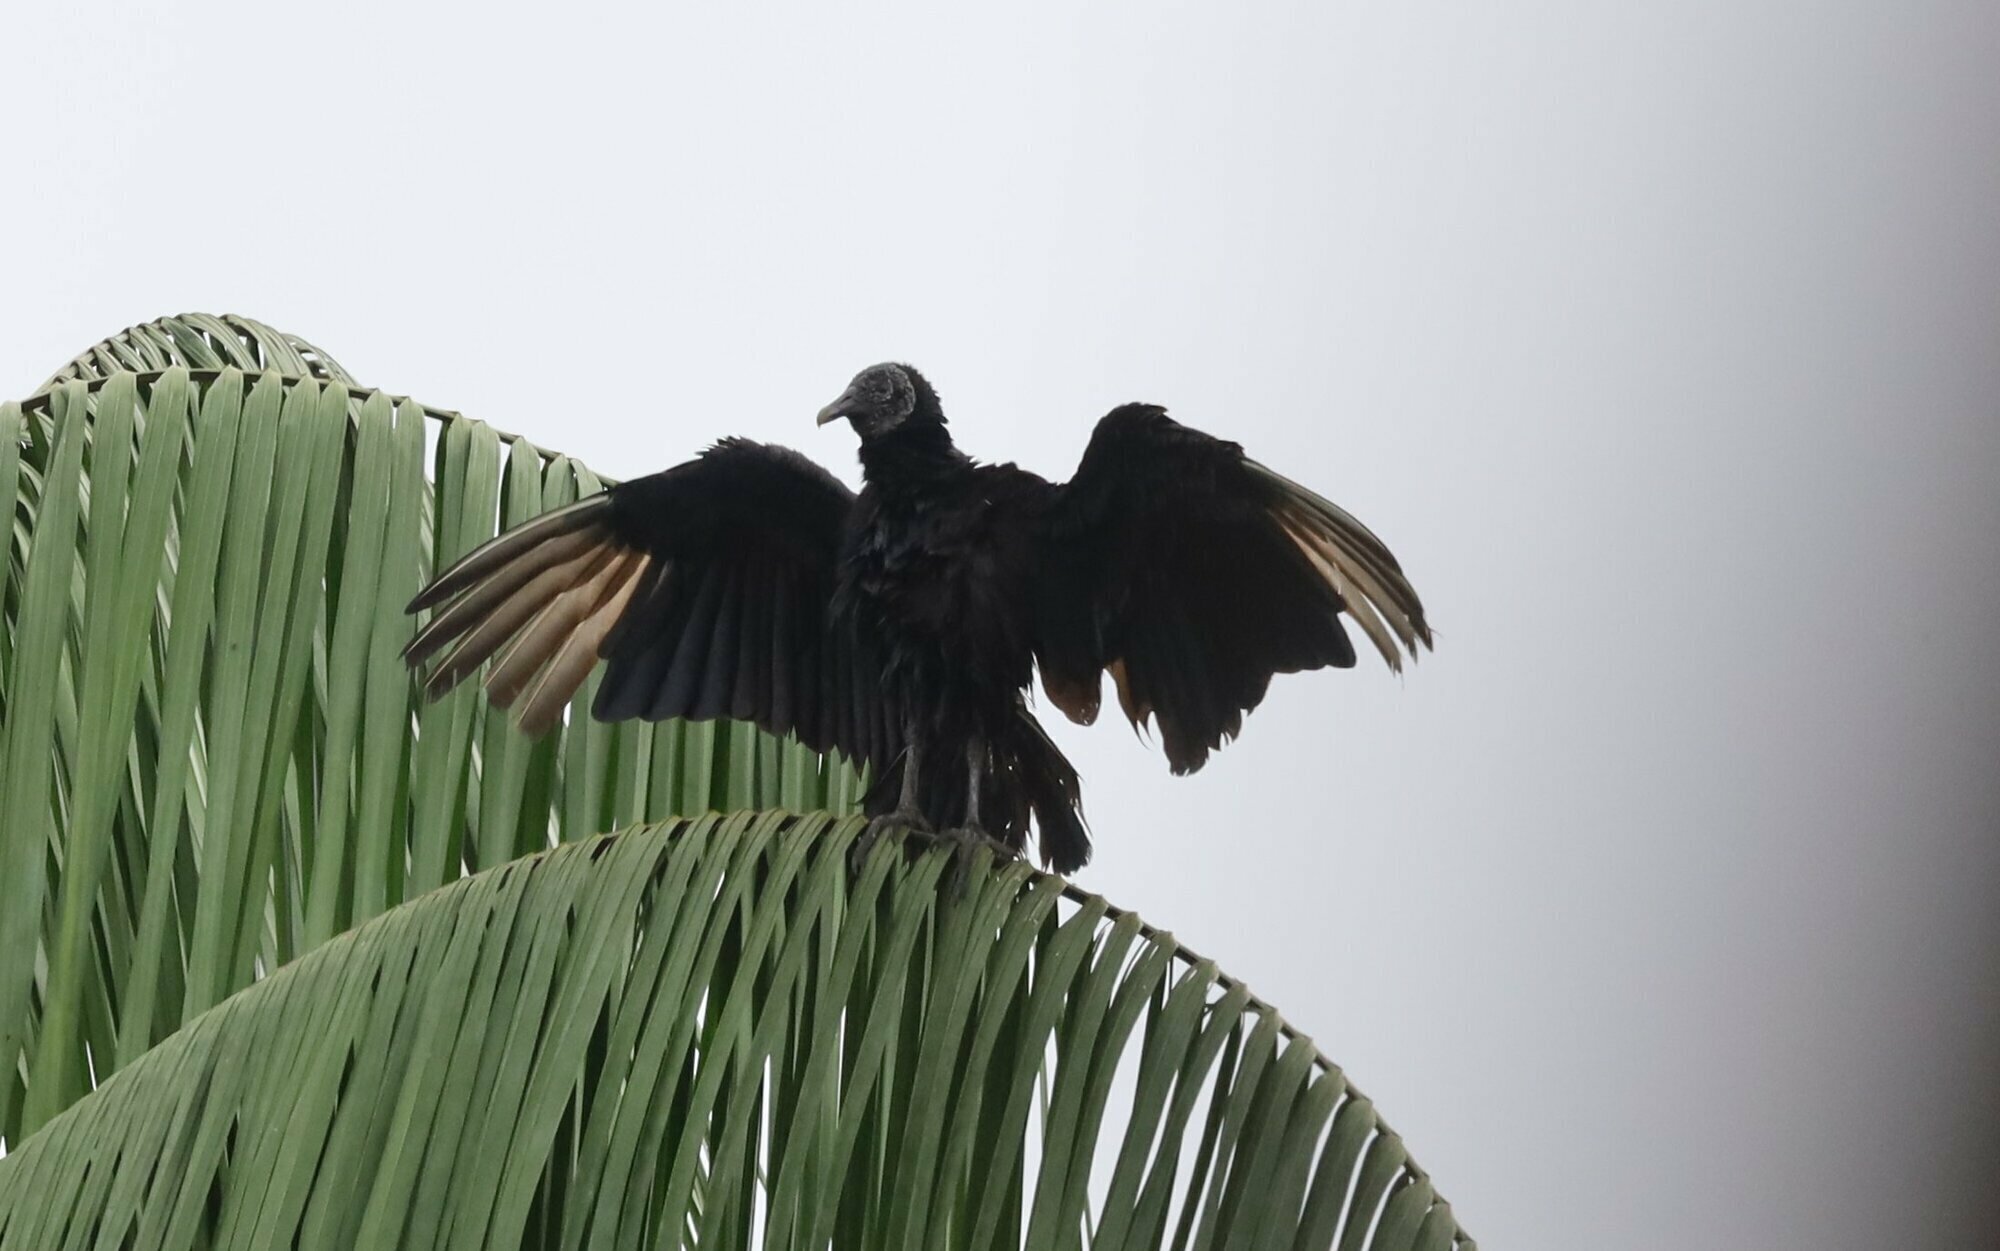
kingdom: Animalia
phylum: Chordata
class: Aves
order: Accipitriformes
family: Cathartidae
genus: Coragyps
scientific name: Coragyps atratus
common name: Black vulture
